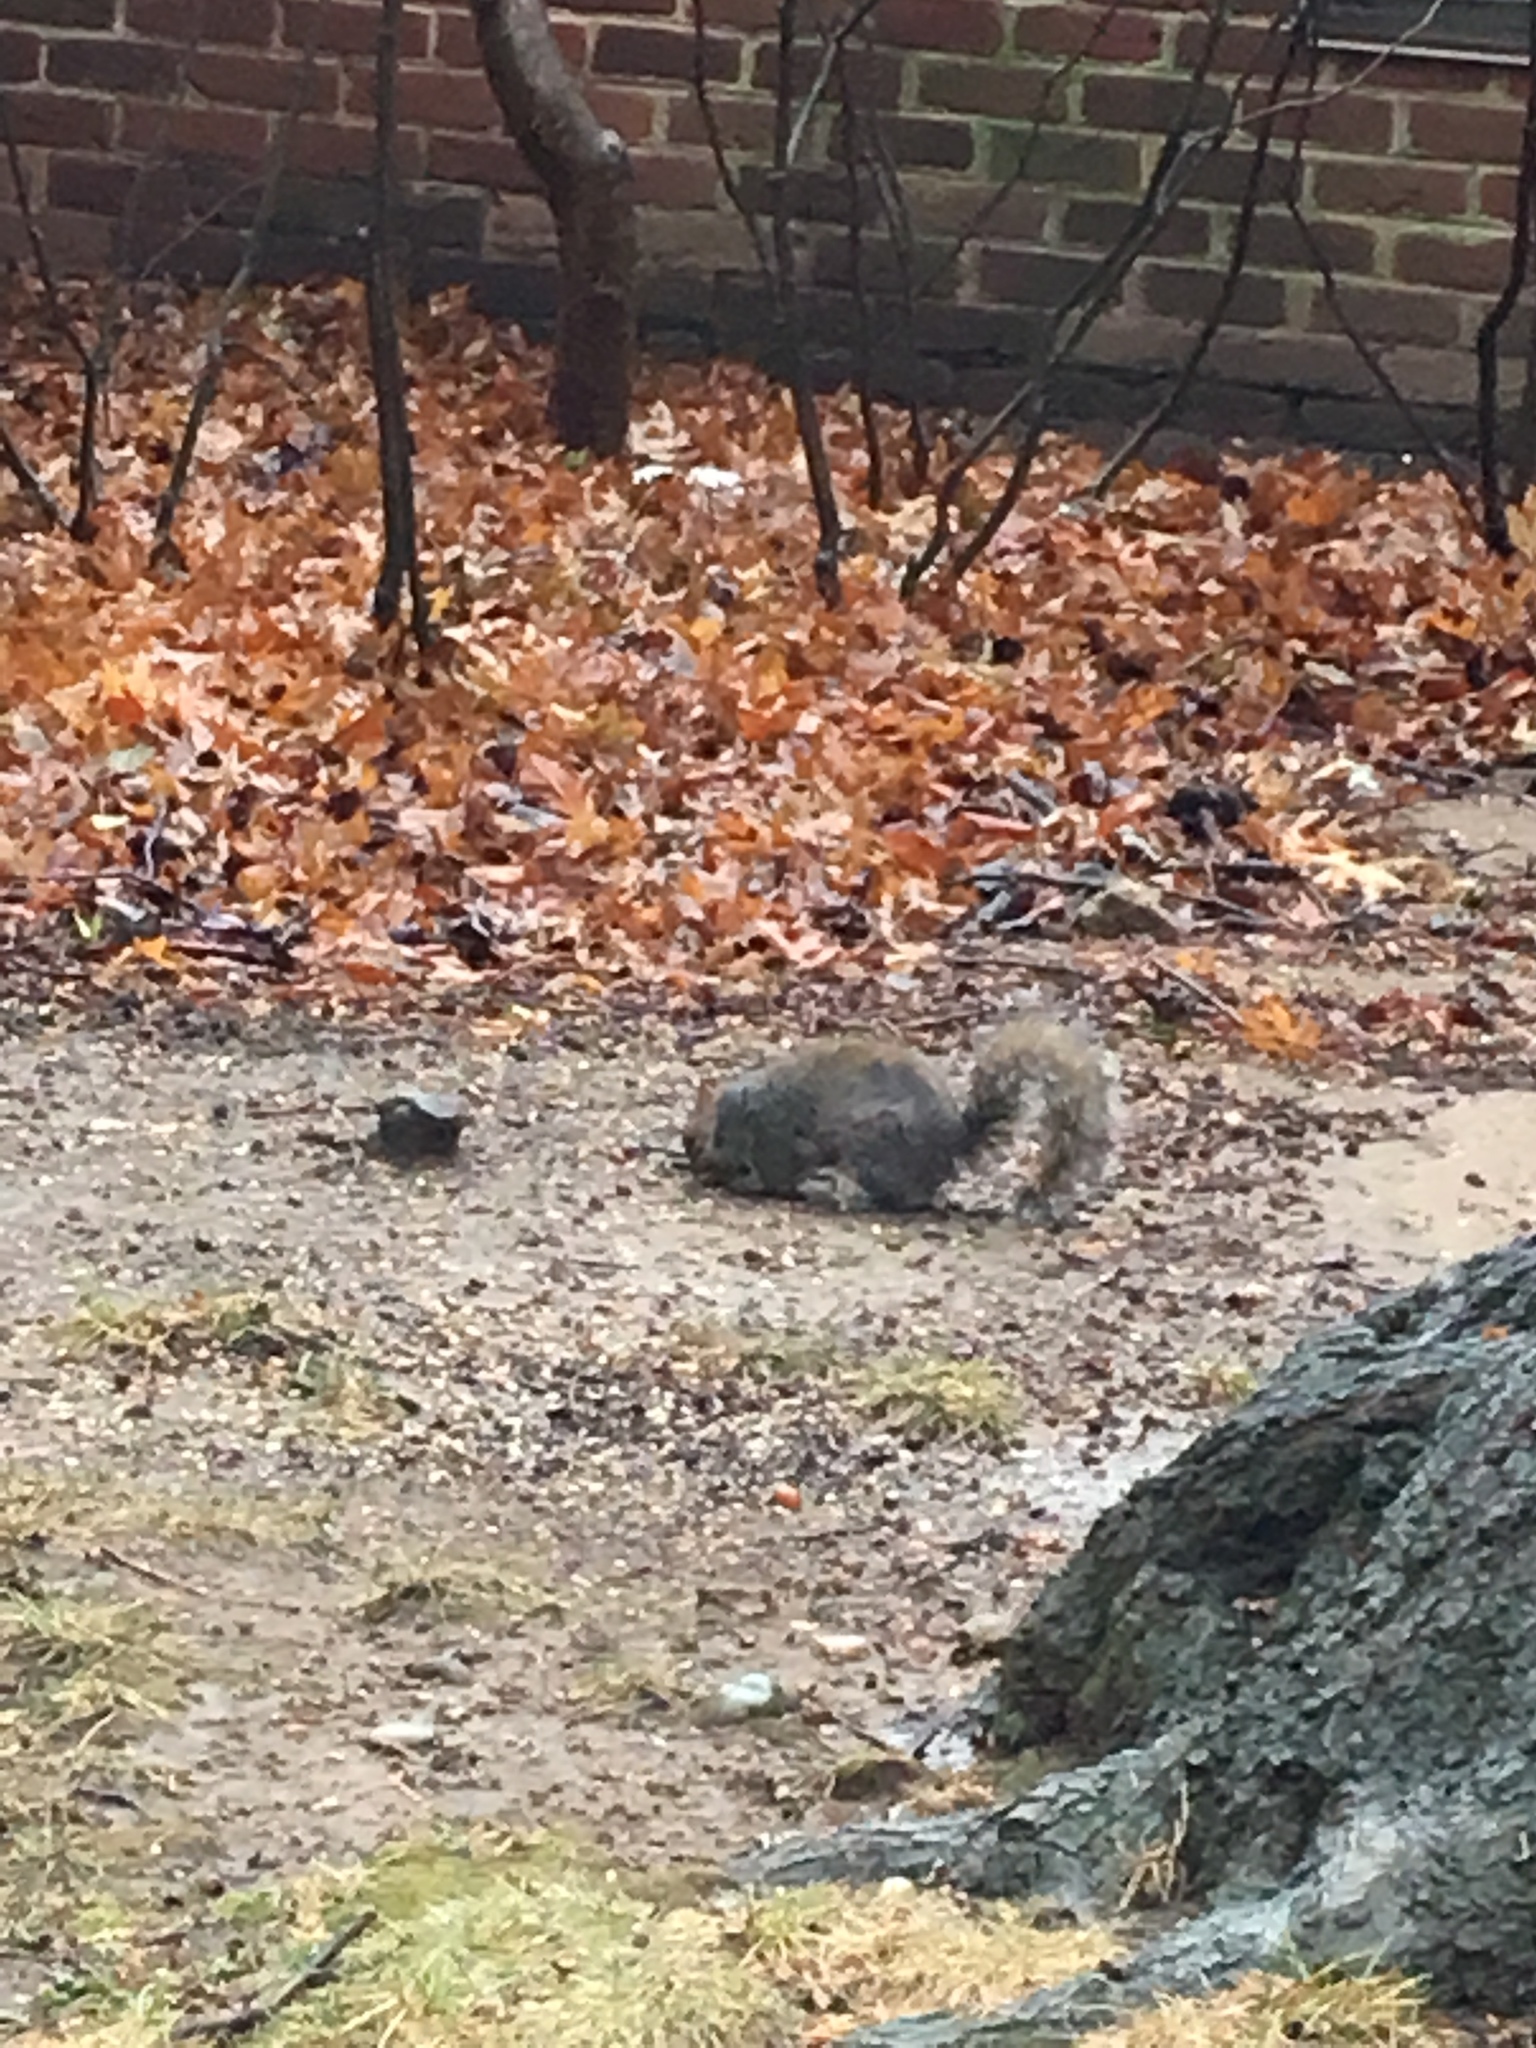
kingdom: Animalia
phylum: Chordata
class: Mammalia
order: Rodentia
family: Sciuridae
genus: Sciurus
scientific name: Sciurus carolinensis
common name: Eastern gray squirrel
